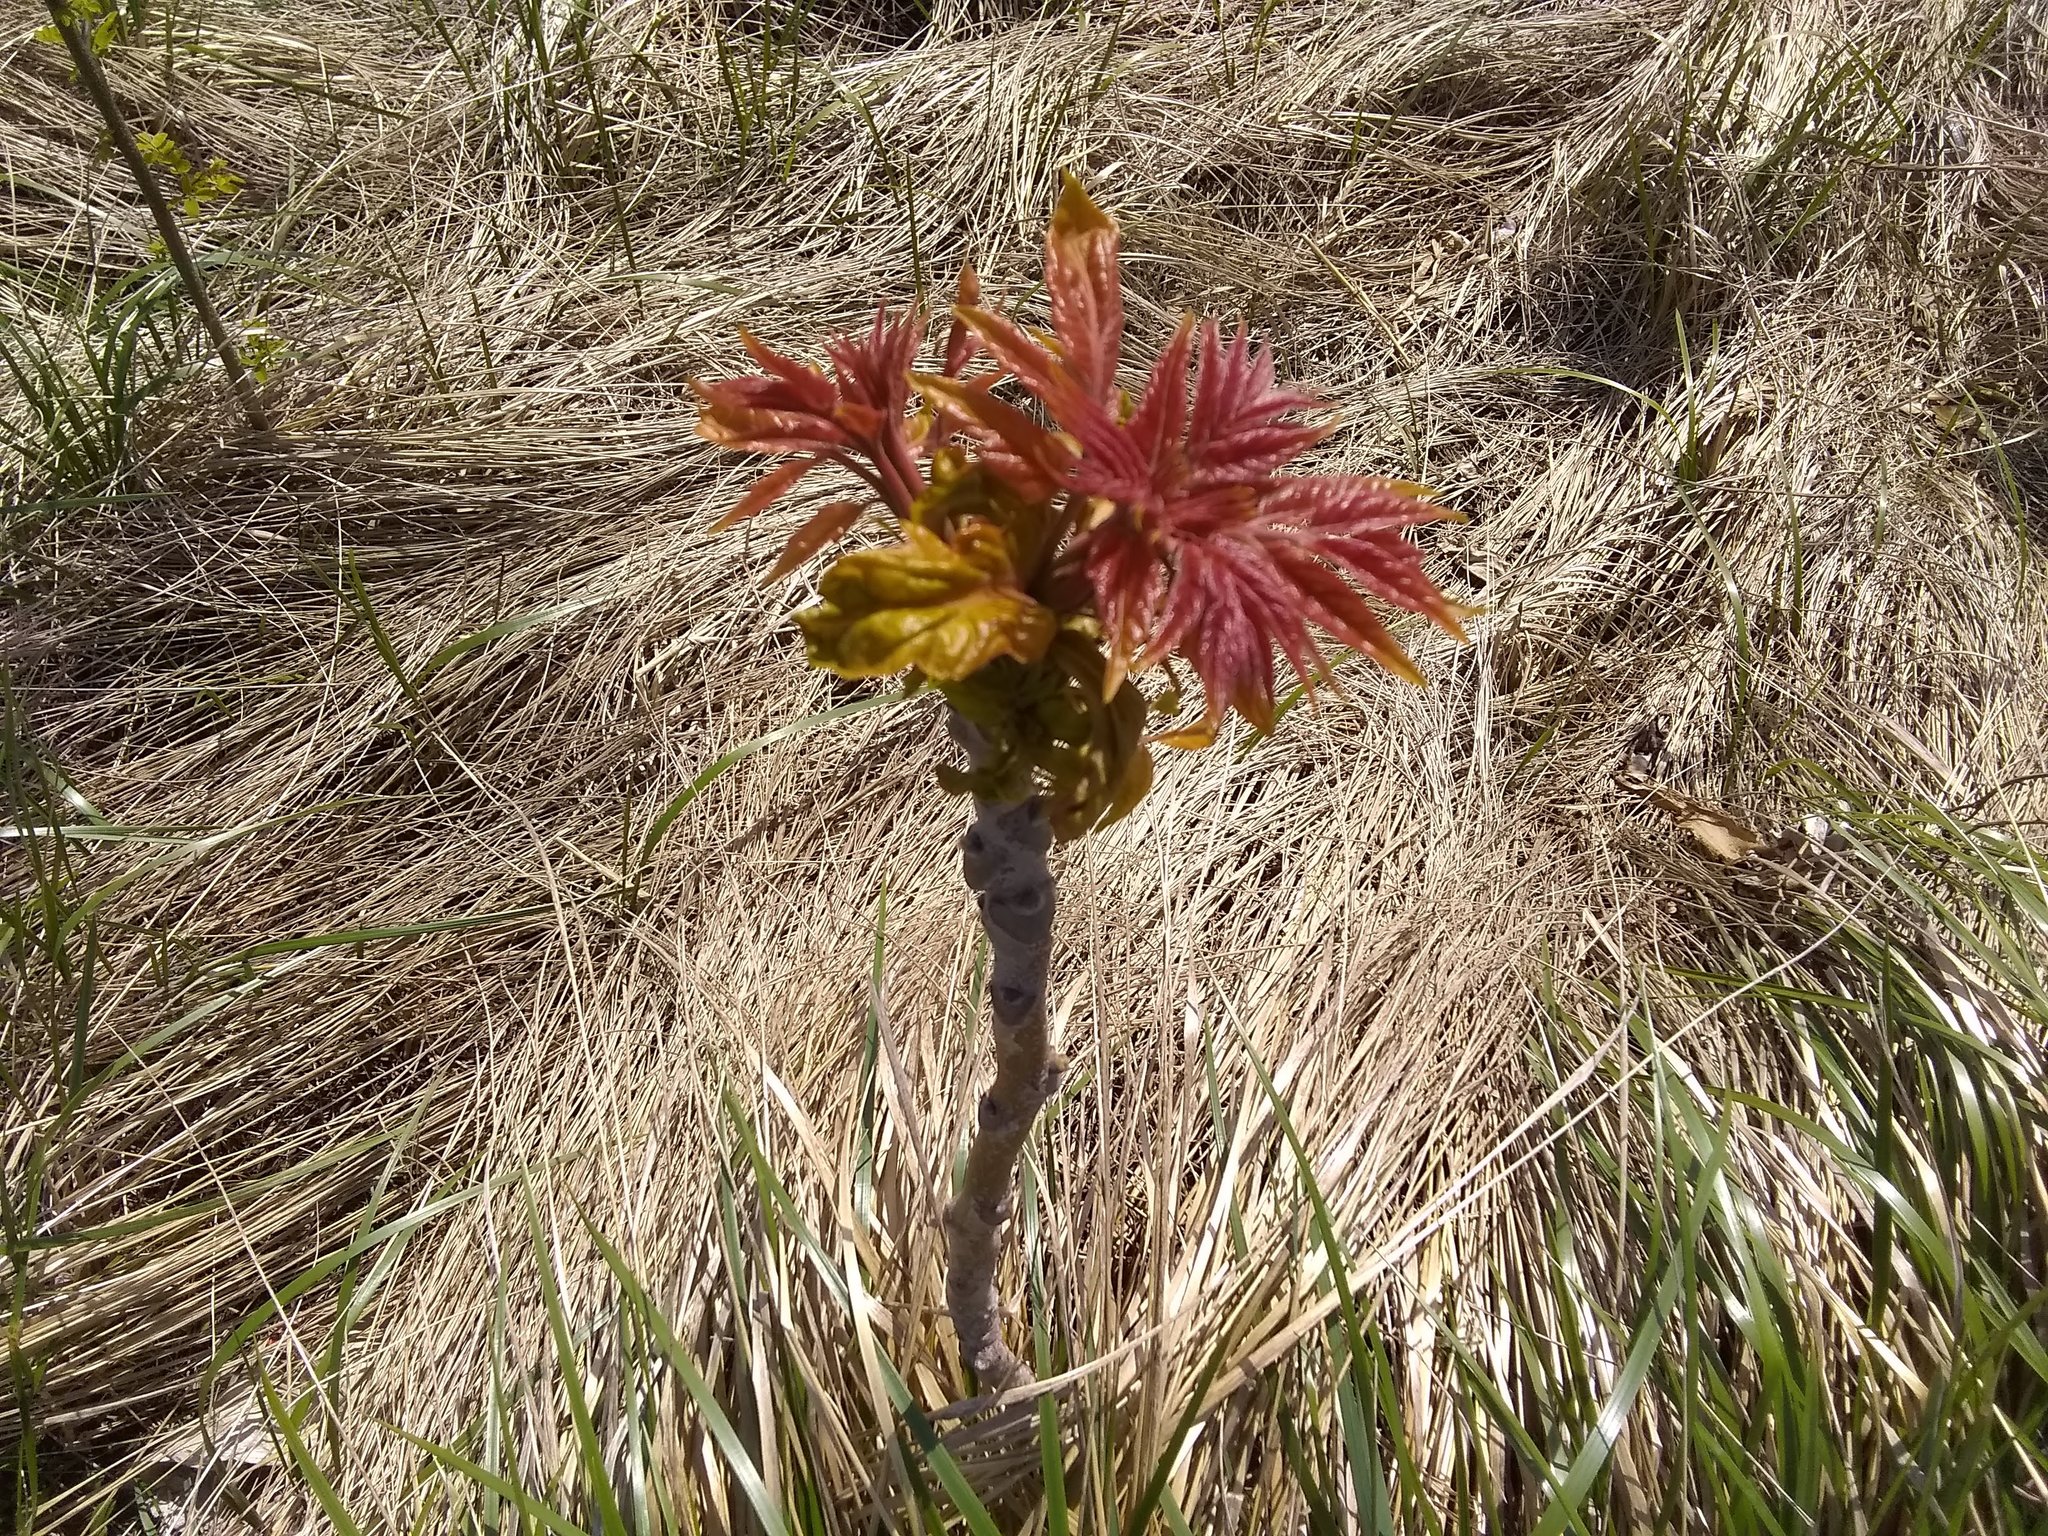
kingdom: Plantae
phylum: Tracheophyta
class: Magnoliopsida
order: Sapindales
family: Simaroubaceae
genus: Ailanthus
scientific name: Ailanthus altissima
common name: Tree-of-heaven
